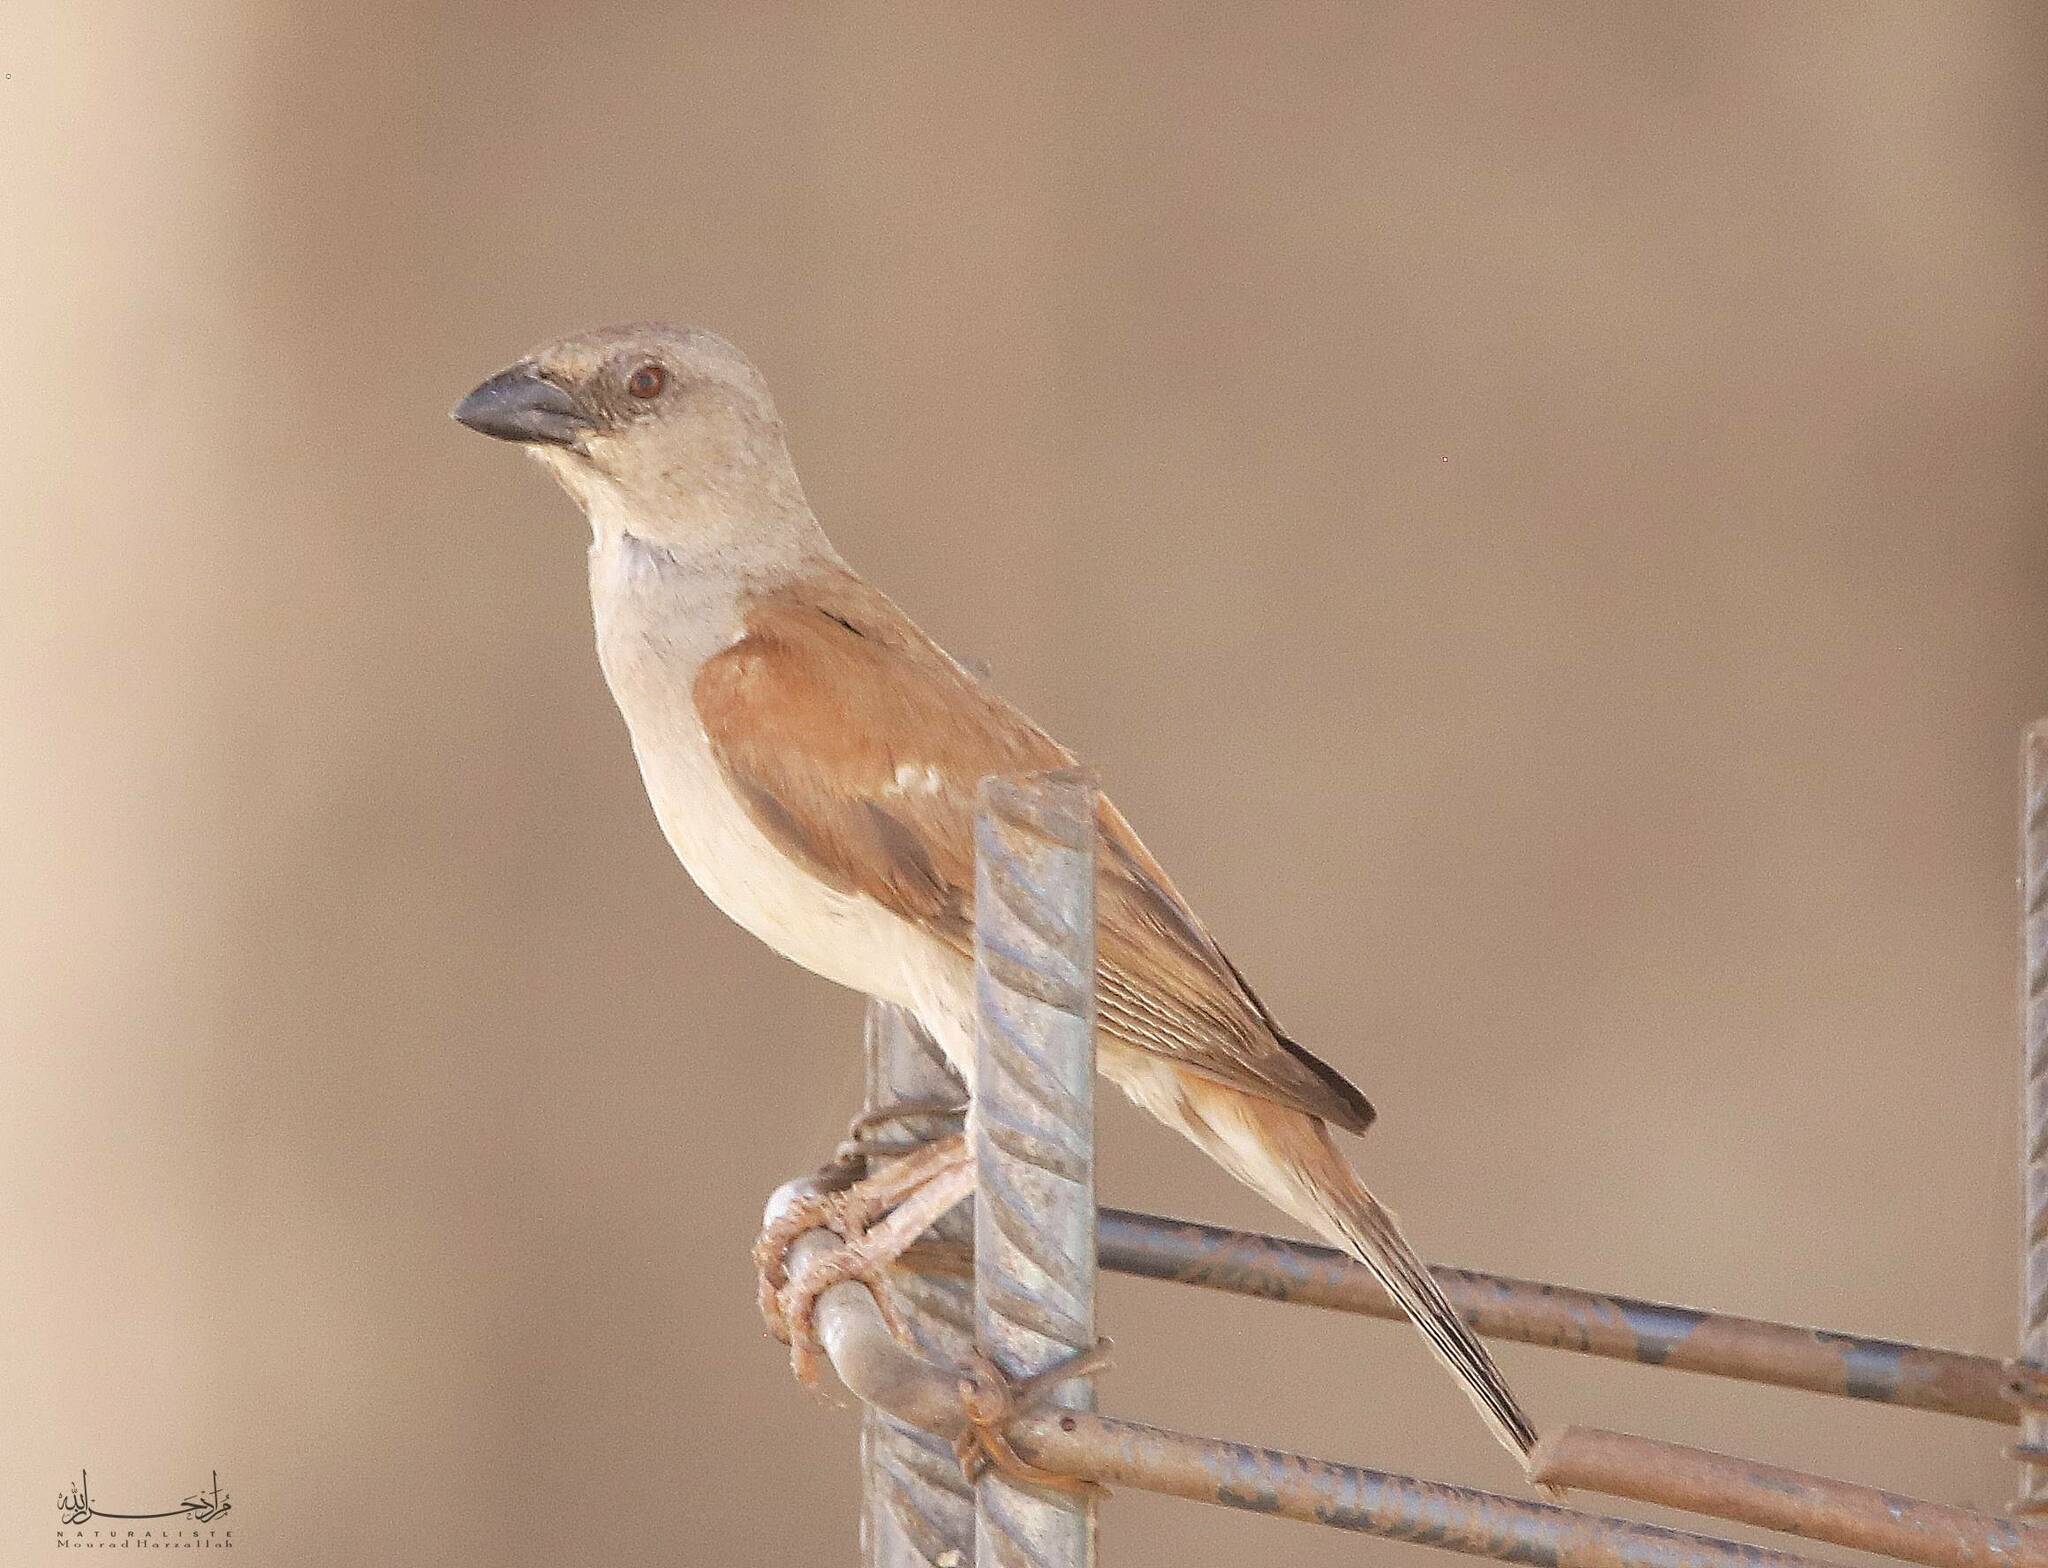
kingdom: Animalia
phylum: Chordata
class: Aves
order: Passeriformes
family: Passeridae
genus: Passer
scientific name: Passer griseus
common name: Northern grey-headed sparrow
